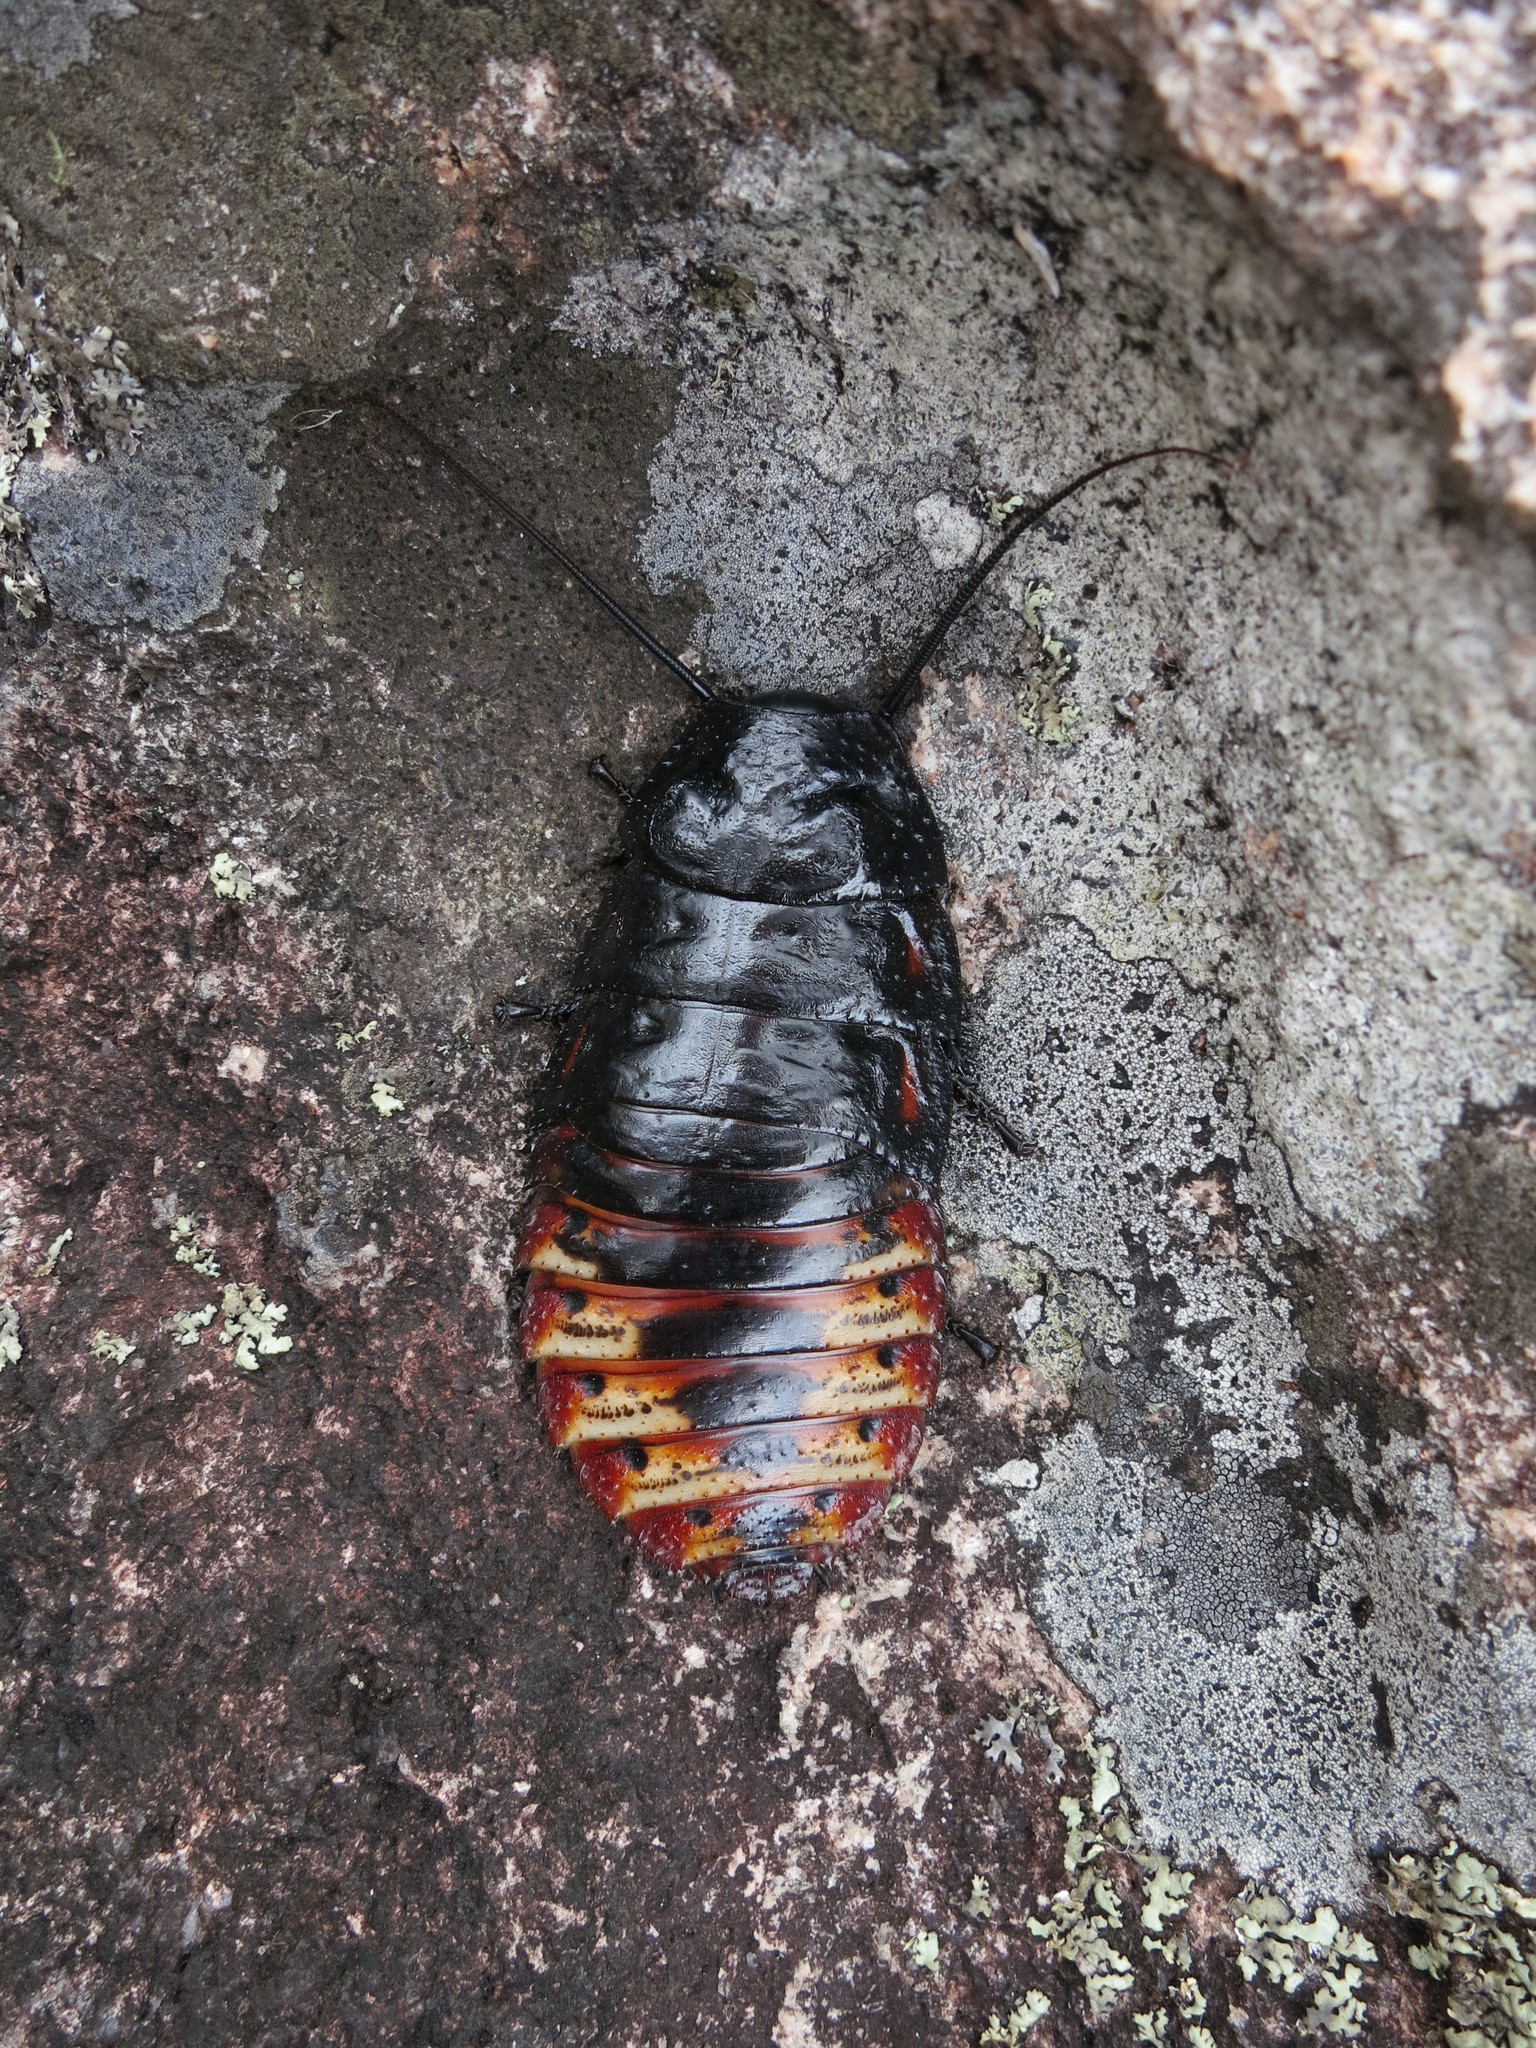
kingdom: Animalia
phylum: Arthropoda
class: Insecta
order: Blattodea
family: Blaberidae
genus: Aeluropoda
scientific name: Aeluropoda insignis
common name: Flat horned hissing cockroach
